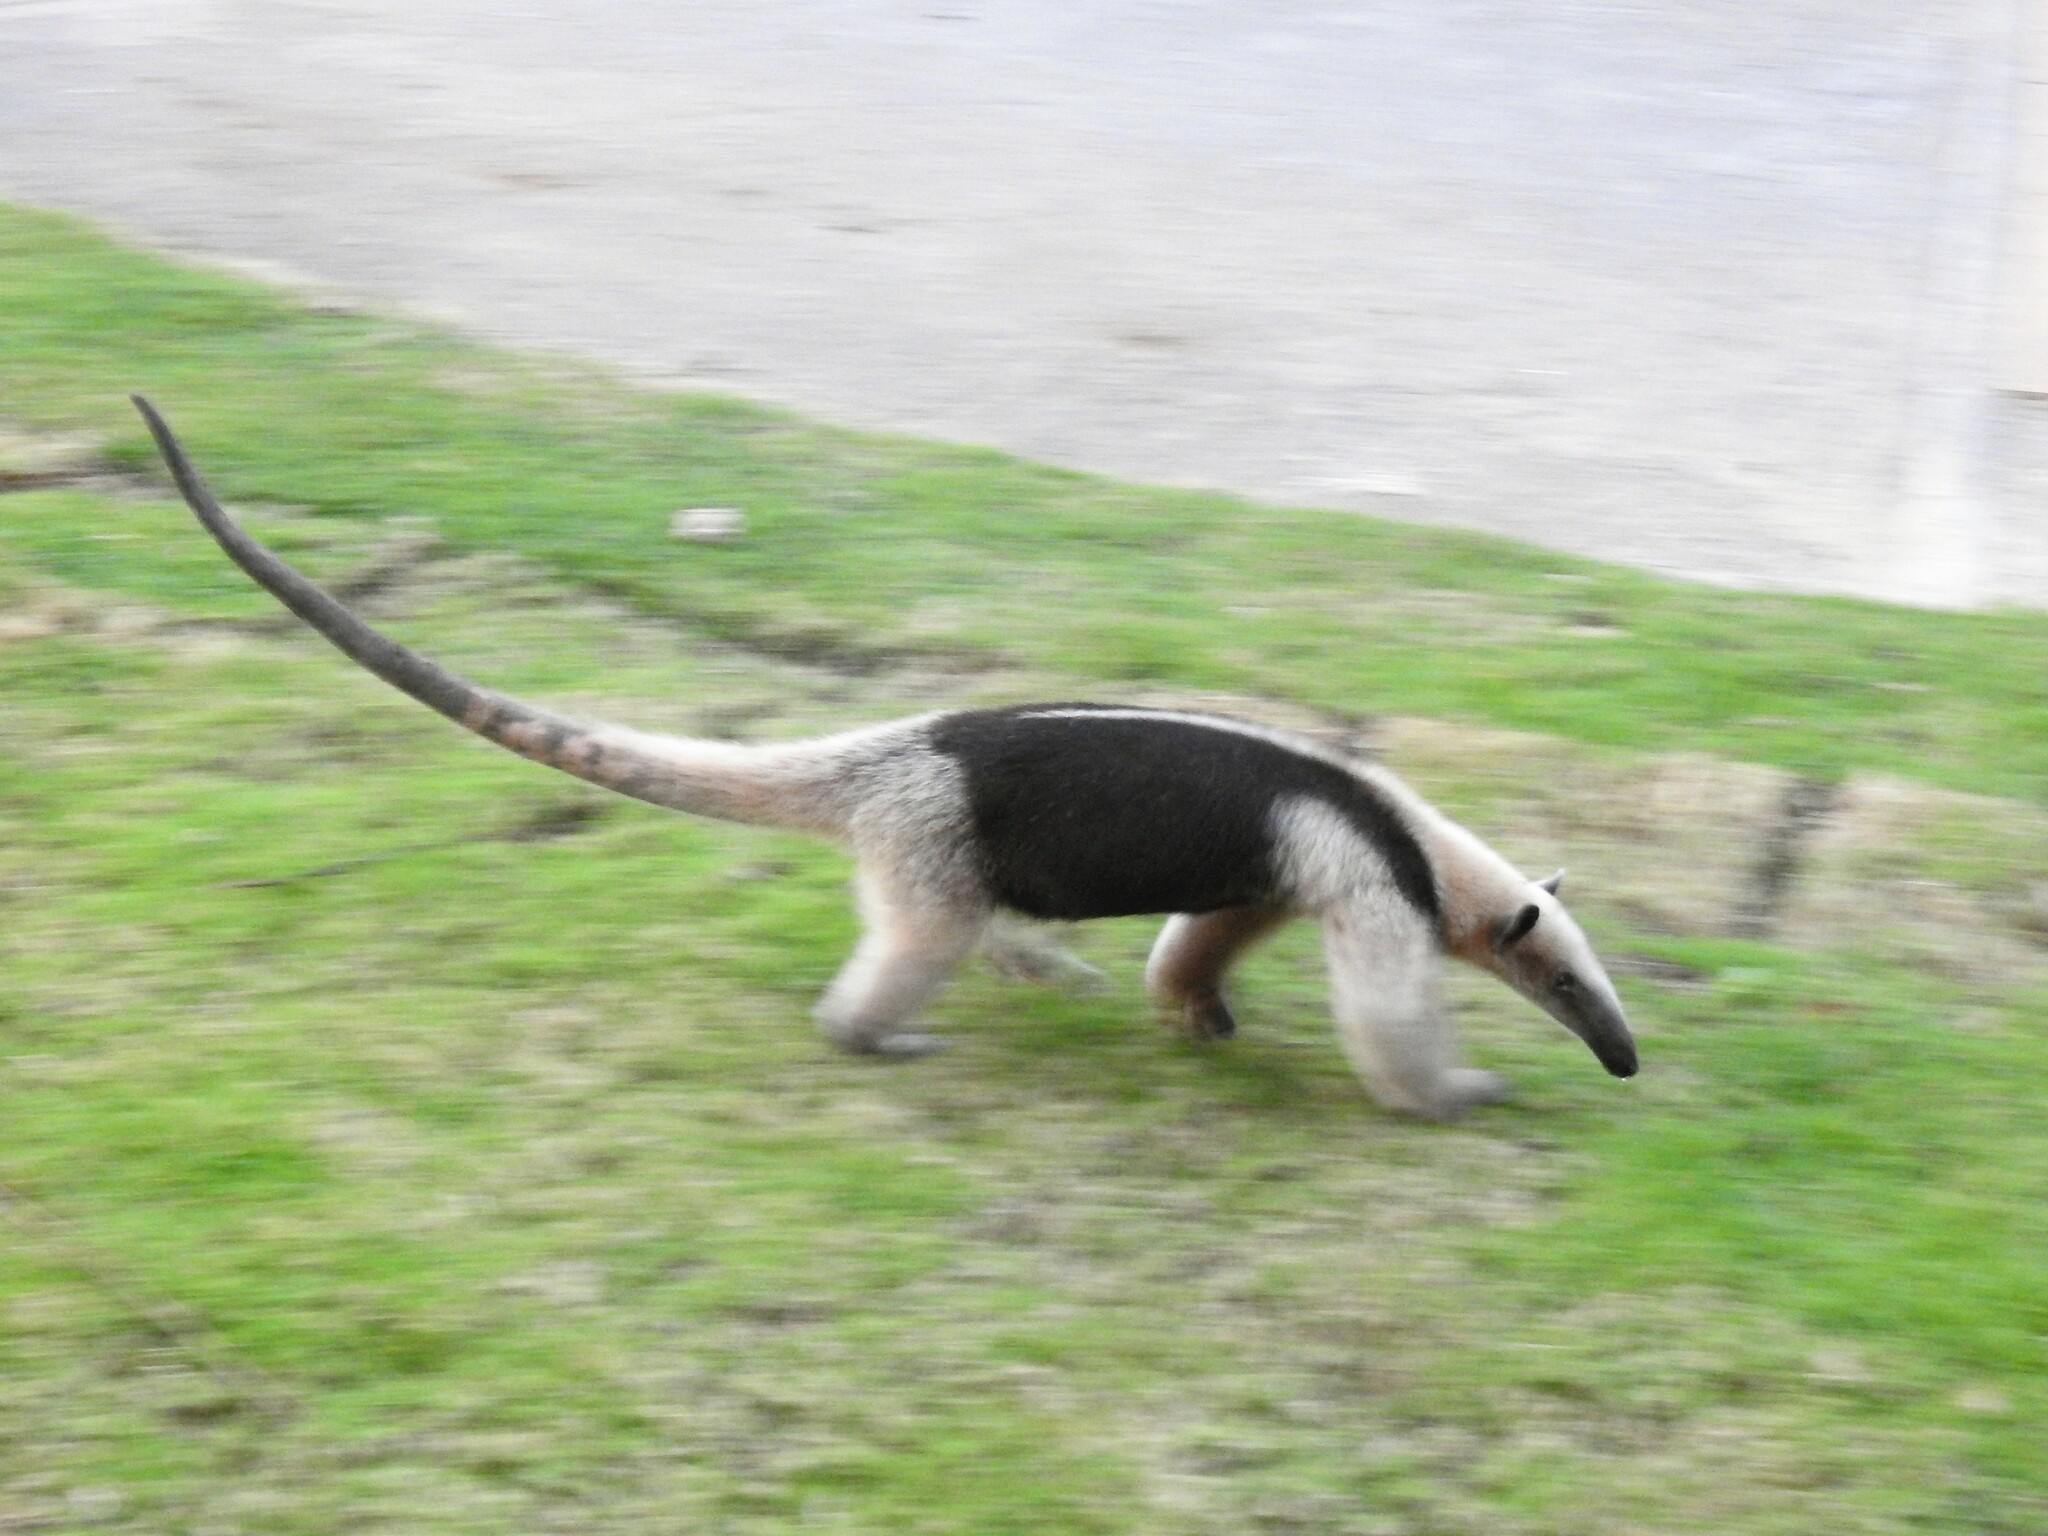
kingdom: Animalia
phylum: Chordata
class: Mammalia
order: Pilosa
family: Myrmecophagidae
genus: Tamandua
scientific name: Tamandua mexicana
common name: Northern tamandua
